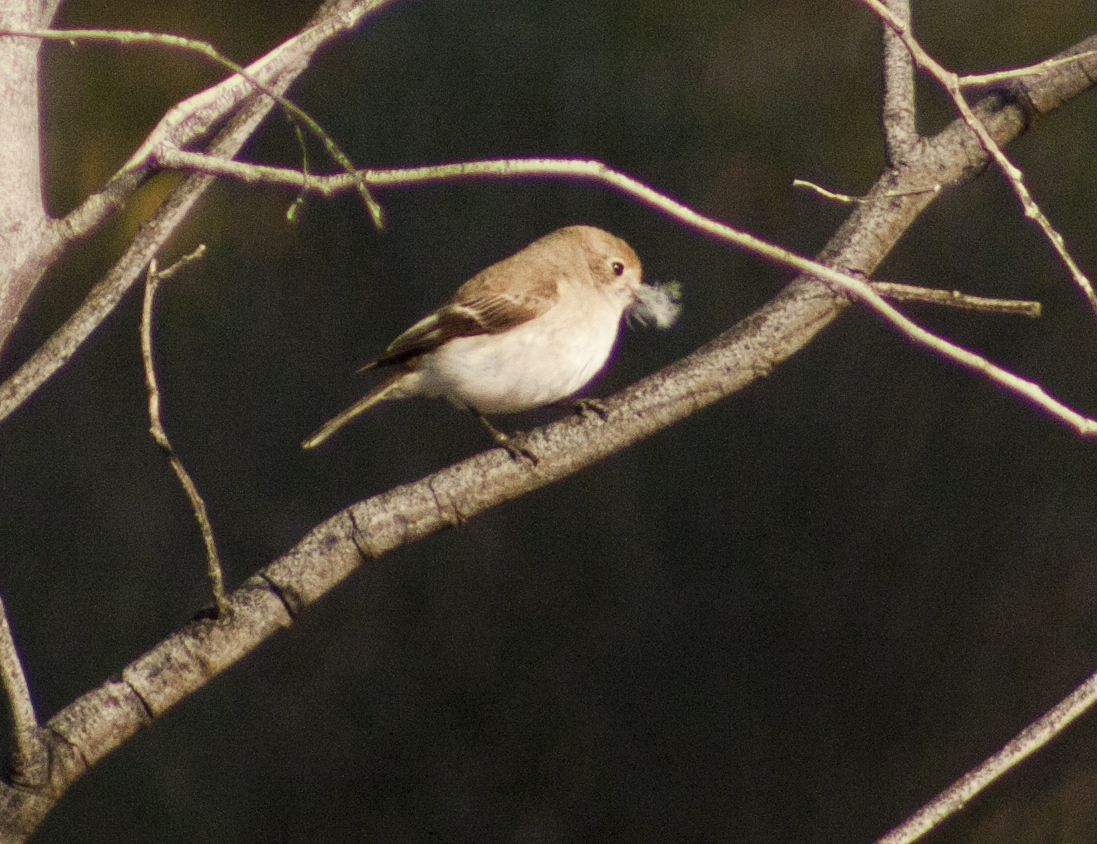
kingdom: Animalia
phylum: Chordata
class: Aves
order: Passeriformes
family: Petroicidae
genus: Petroica
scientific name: Petroica goodenovii
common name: Red-capped robin
